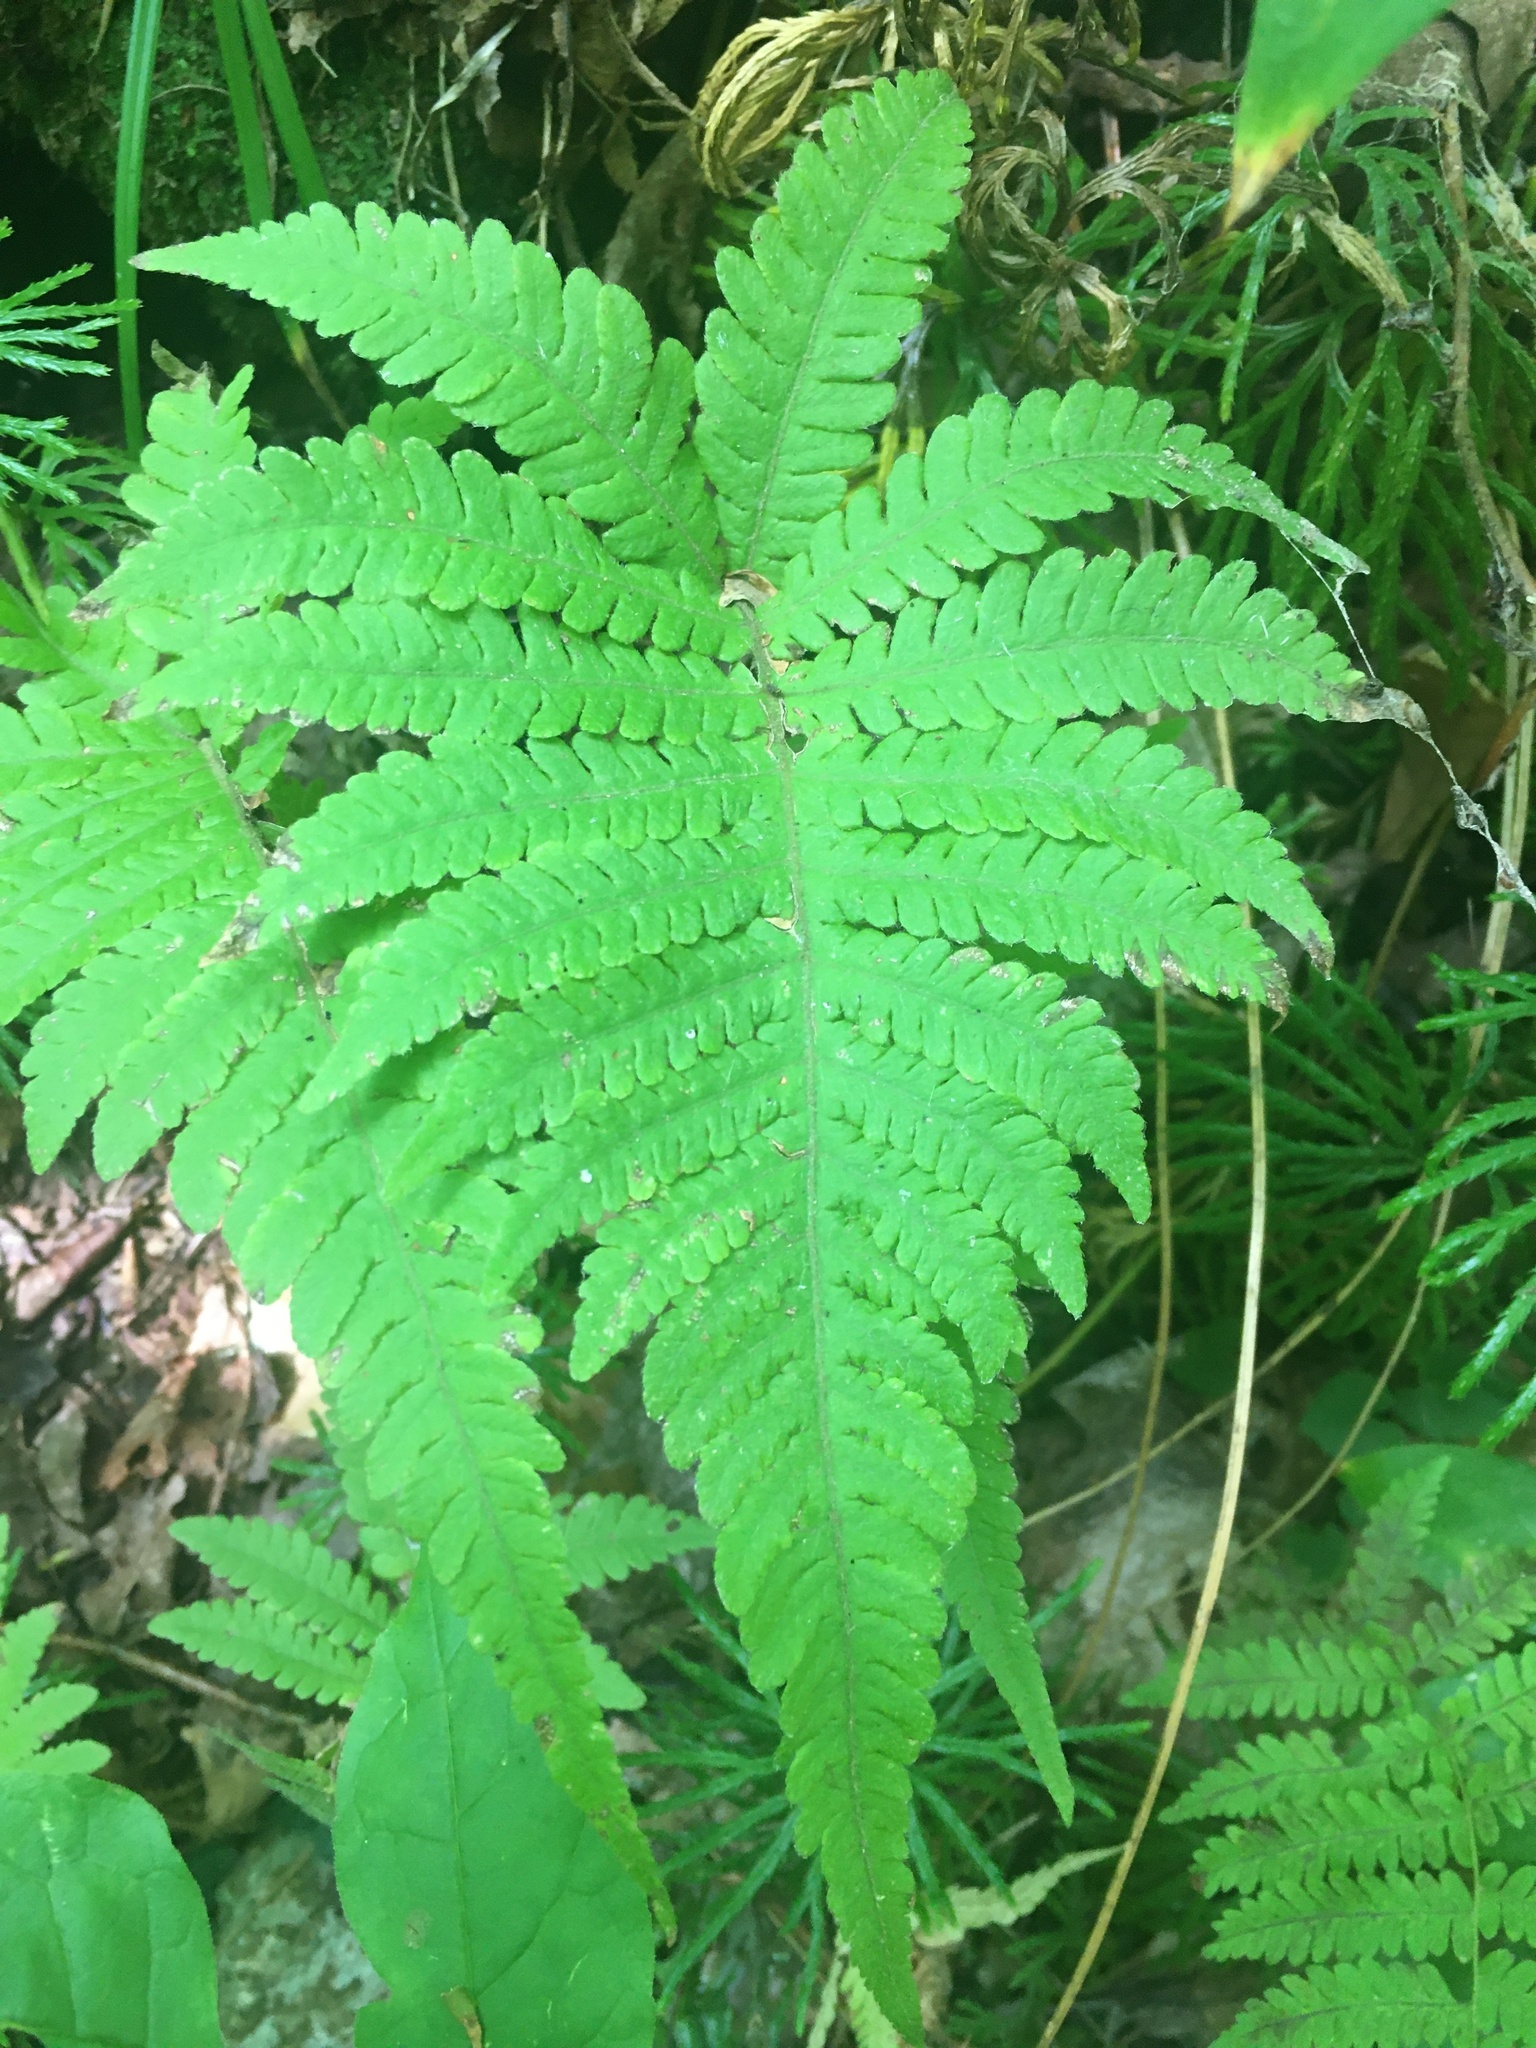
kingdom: Plantae
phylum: Tracheophyta
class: Polypodiopsida
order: Polypodiales
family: Thelypteridaceae
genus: Phegopteris
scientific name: Phegopteris connectilis
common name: Beech fern
